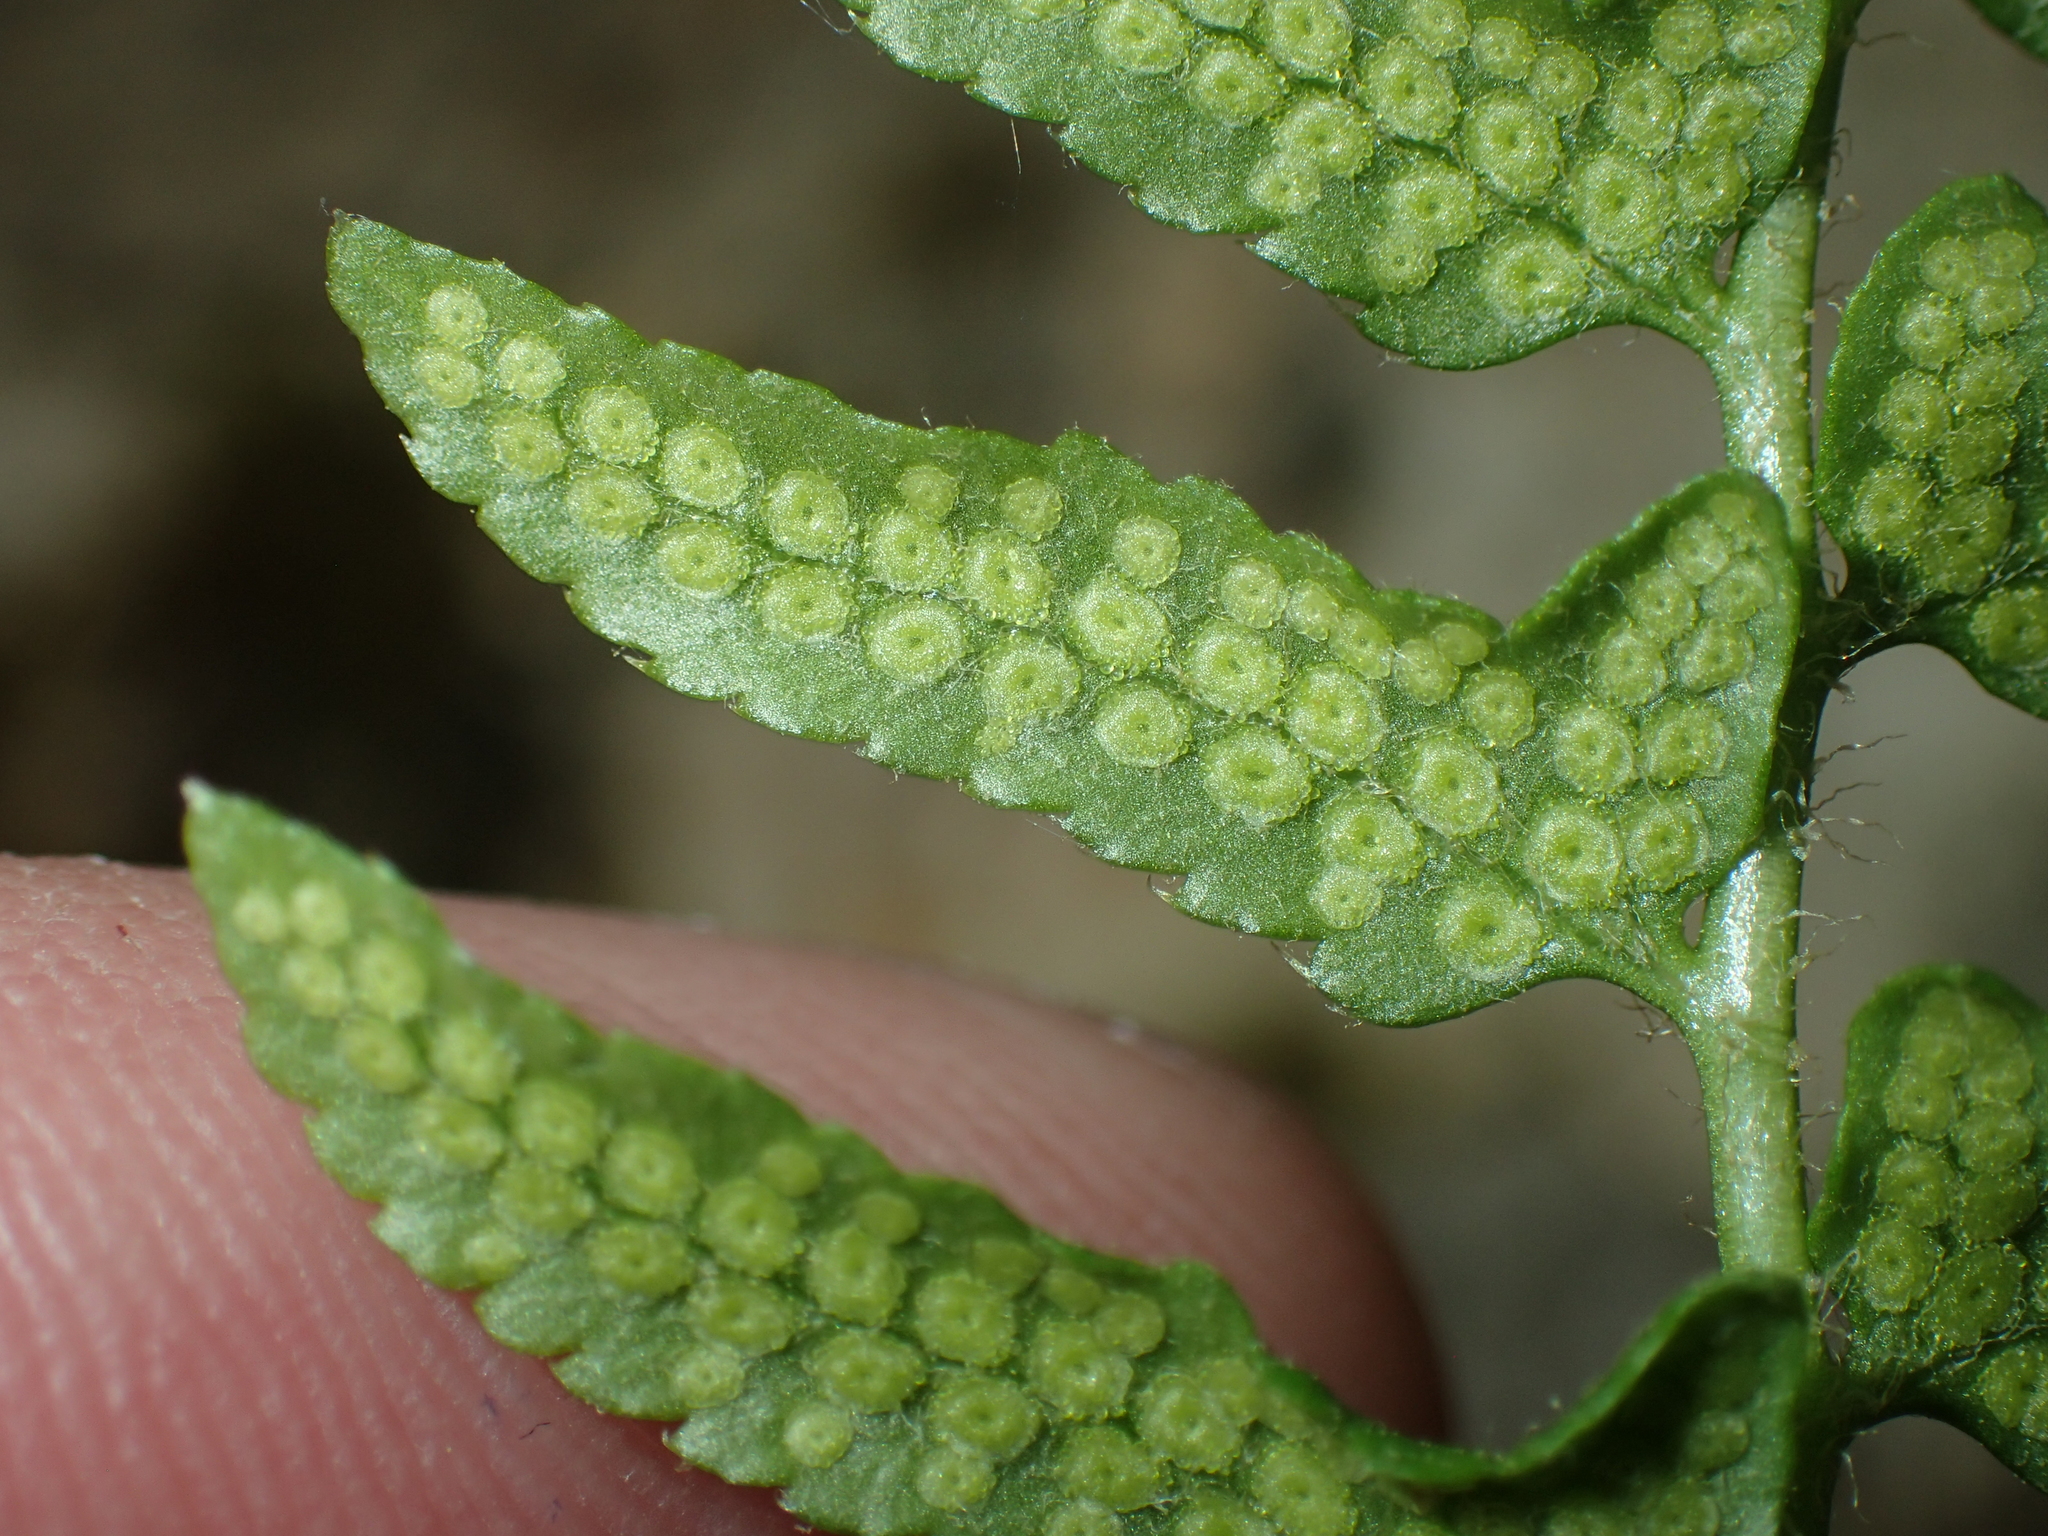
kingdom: Plantae
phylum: Tracheophyta
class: Polypodiopsida
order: Polypodiales
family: Dryopteridaceae
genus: Polystichum
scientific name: Polystichum acrostichoides
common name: Christmas fern
